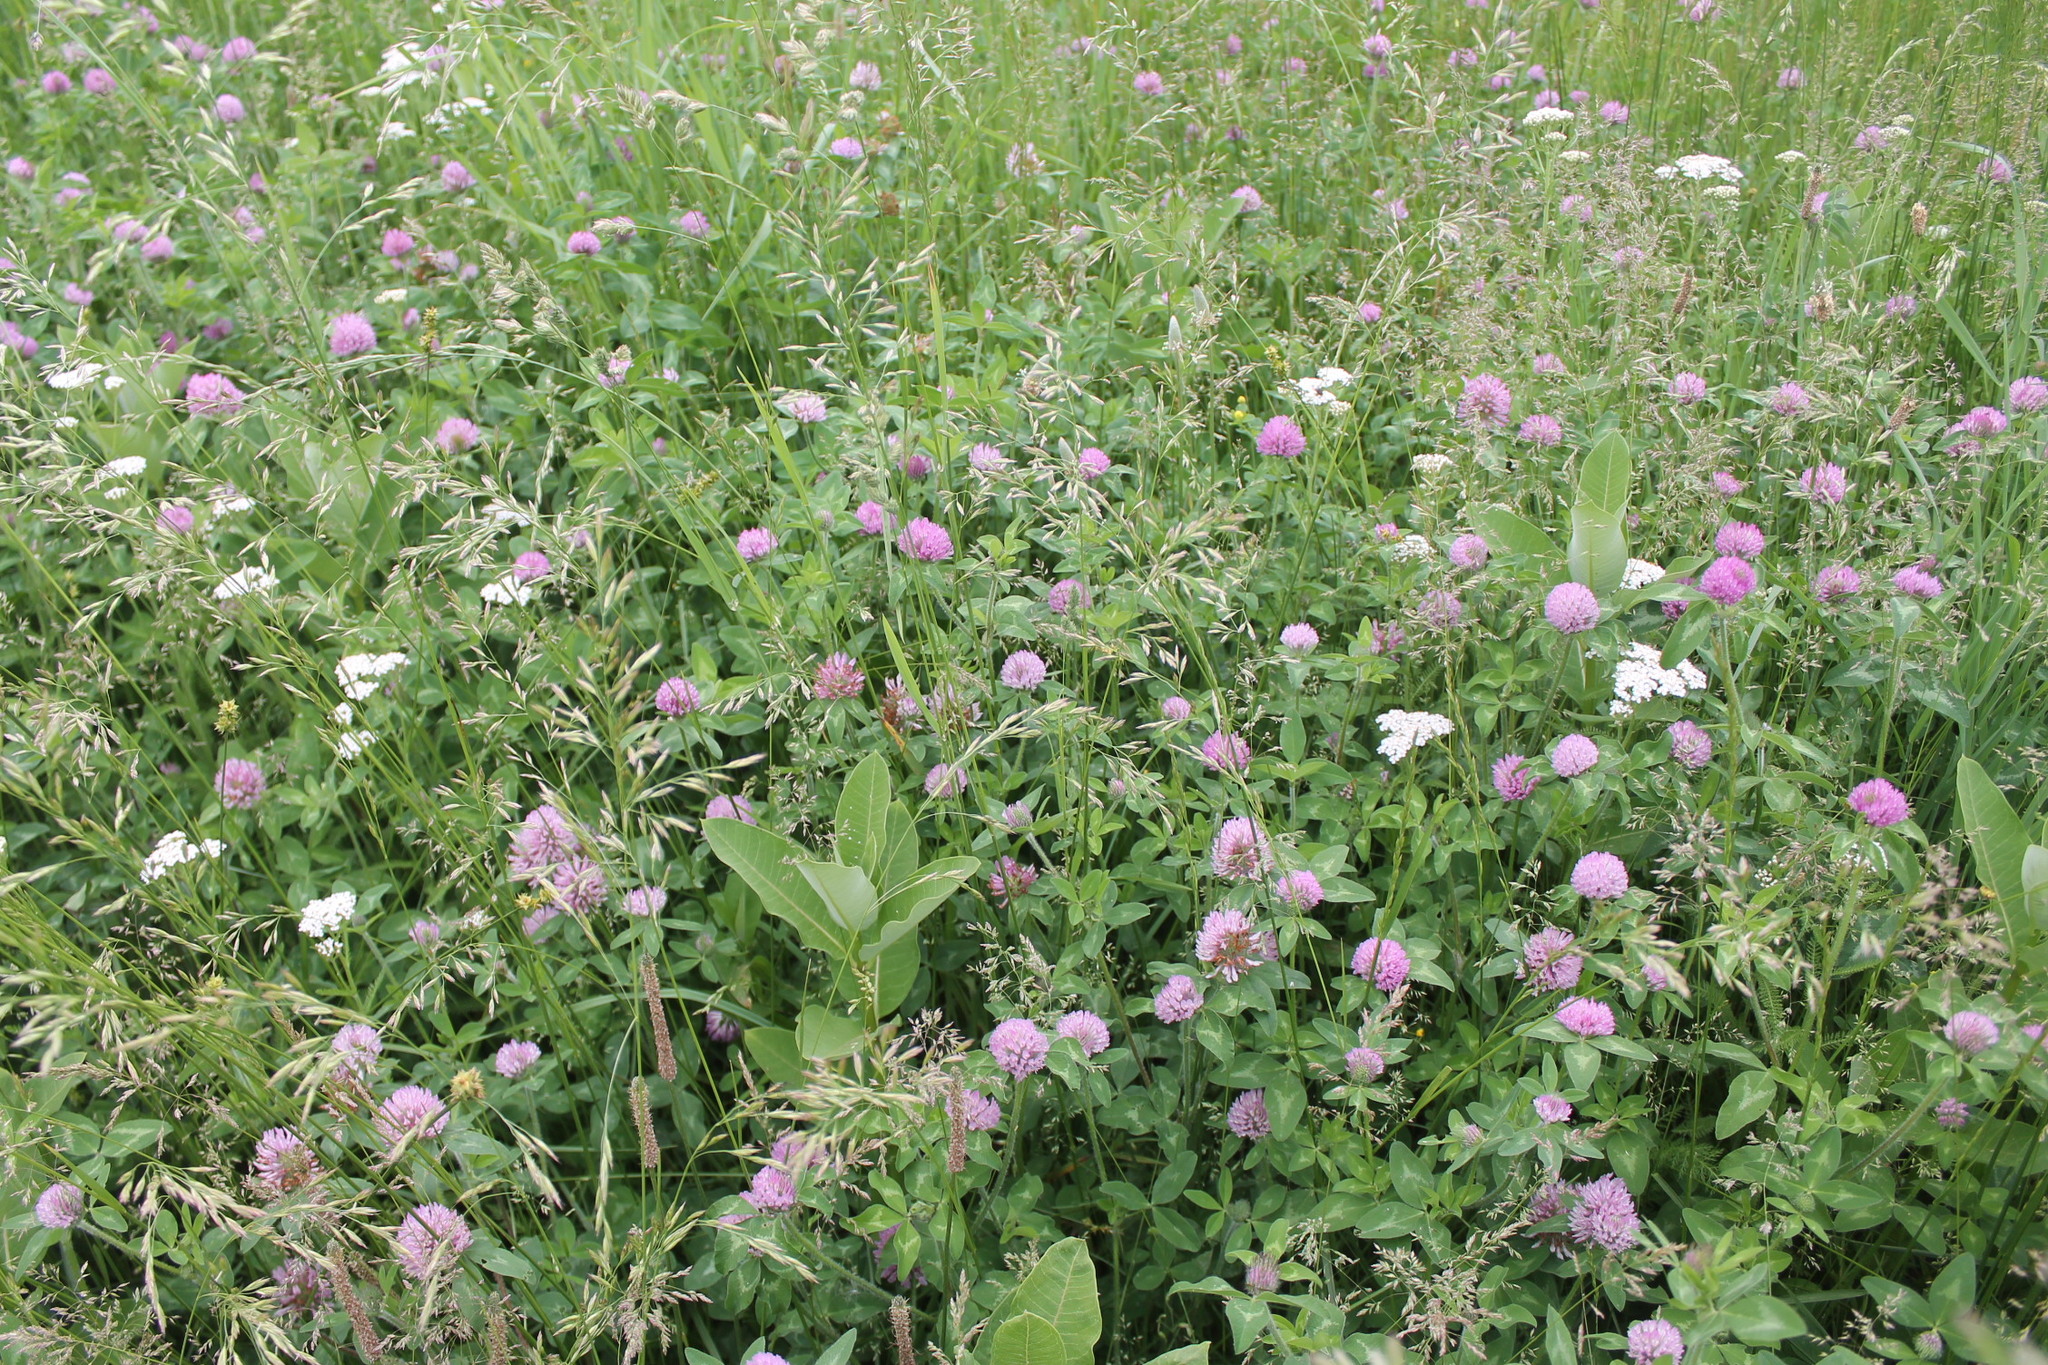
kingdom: Plantae
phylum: Tracheophyta
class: Magnoliopsida
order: Fabales
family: Fabaceae
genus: Trifolium
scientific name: Trifolium pratense
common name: Red clover
